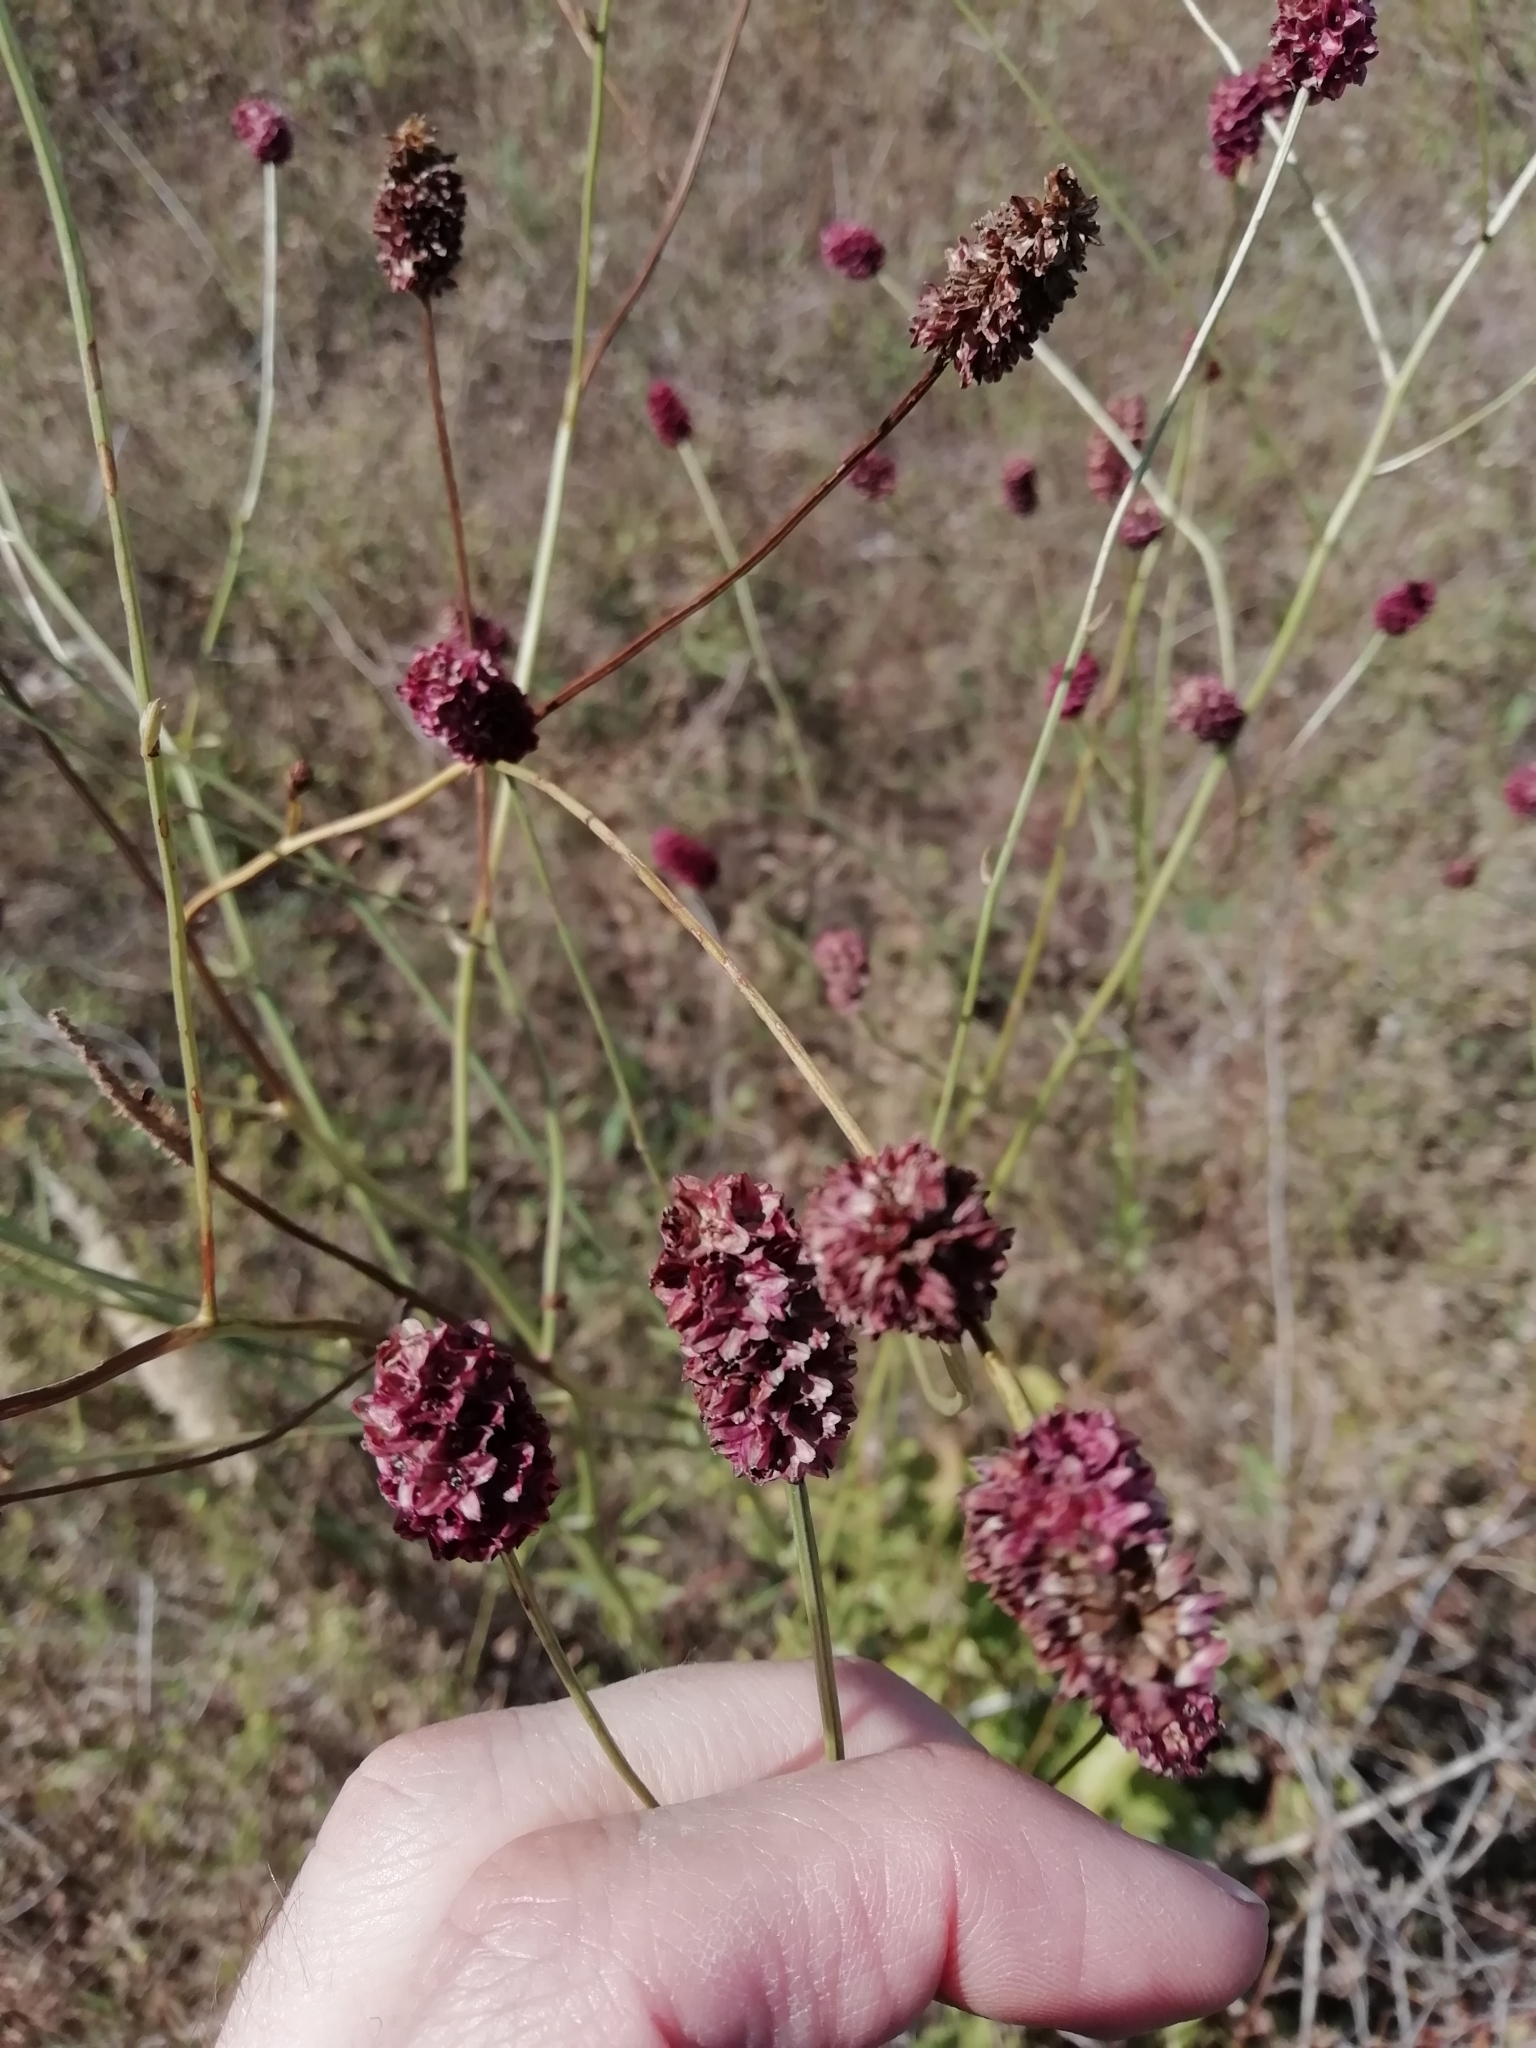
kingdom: Plantae
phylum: Tracheophyta
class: Magnoliopsida
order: Rosales
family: Rosaceae
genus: Sanguisorba
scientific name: Sanguisorba officinalis
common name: Great burnet
